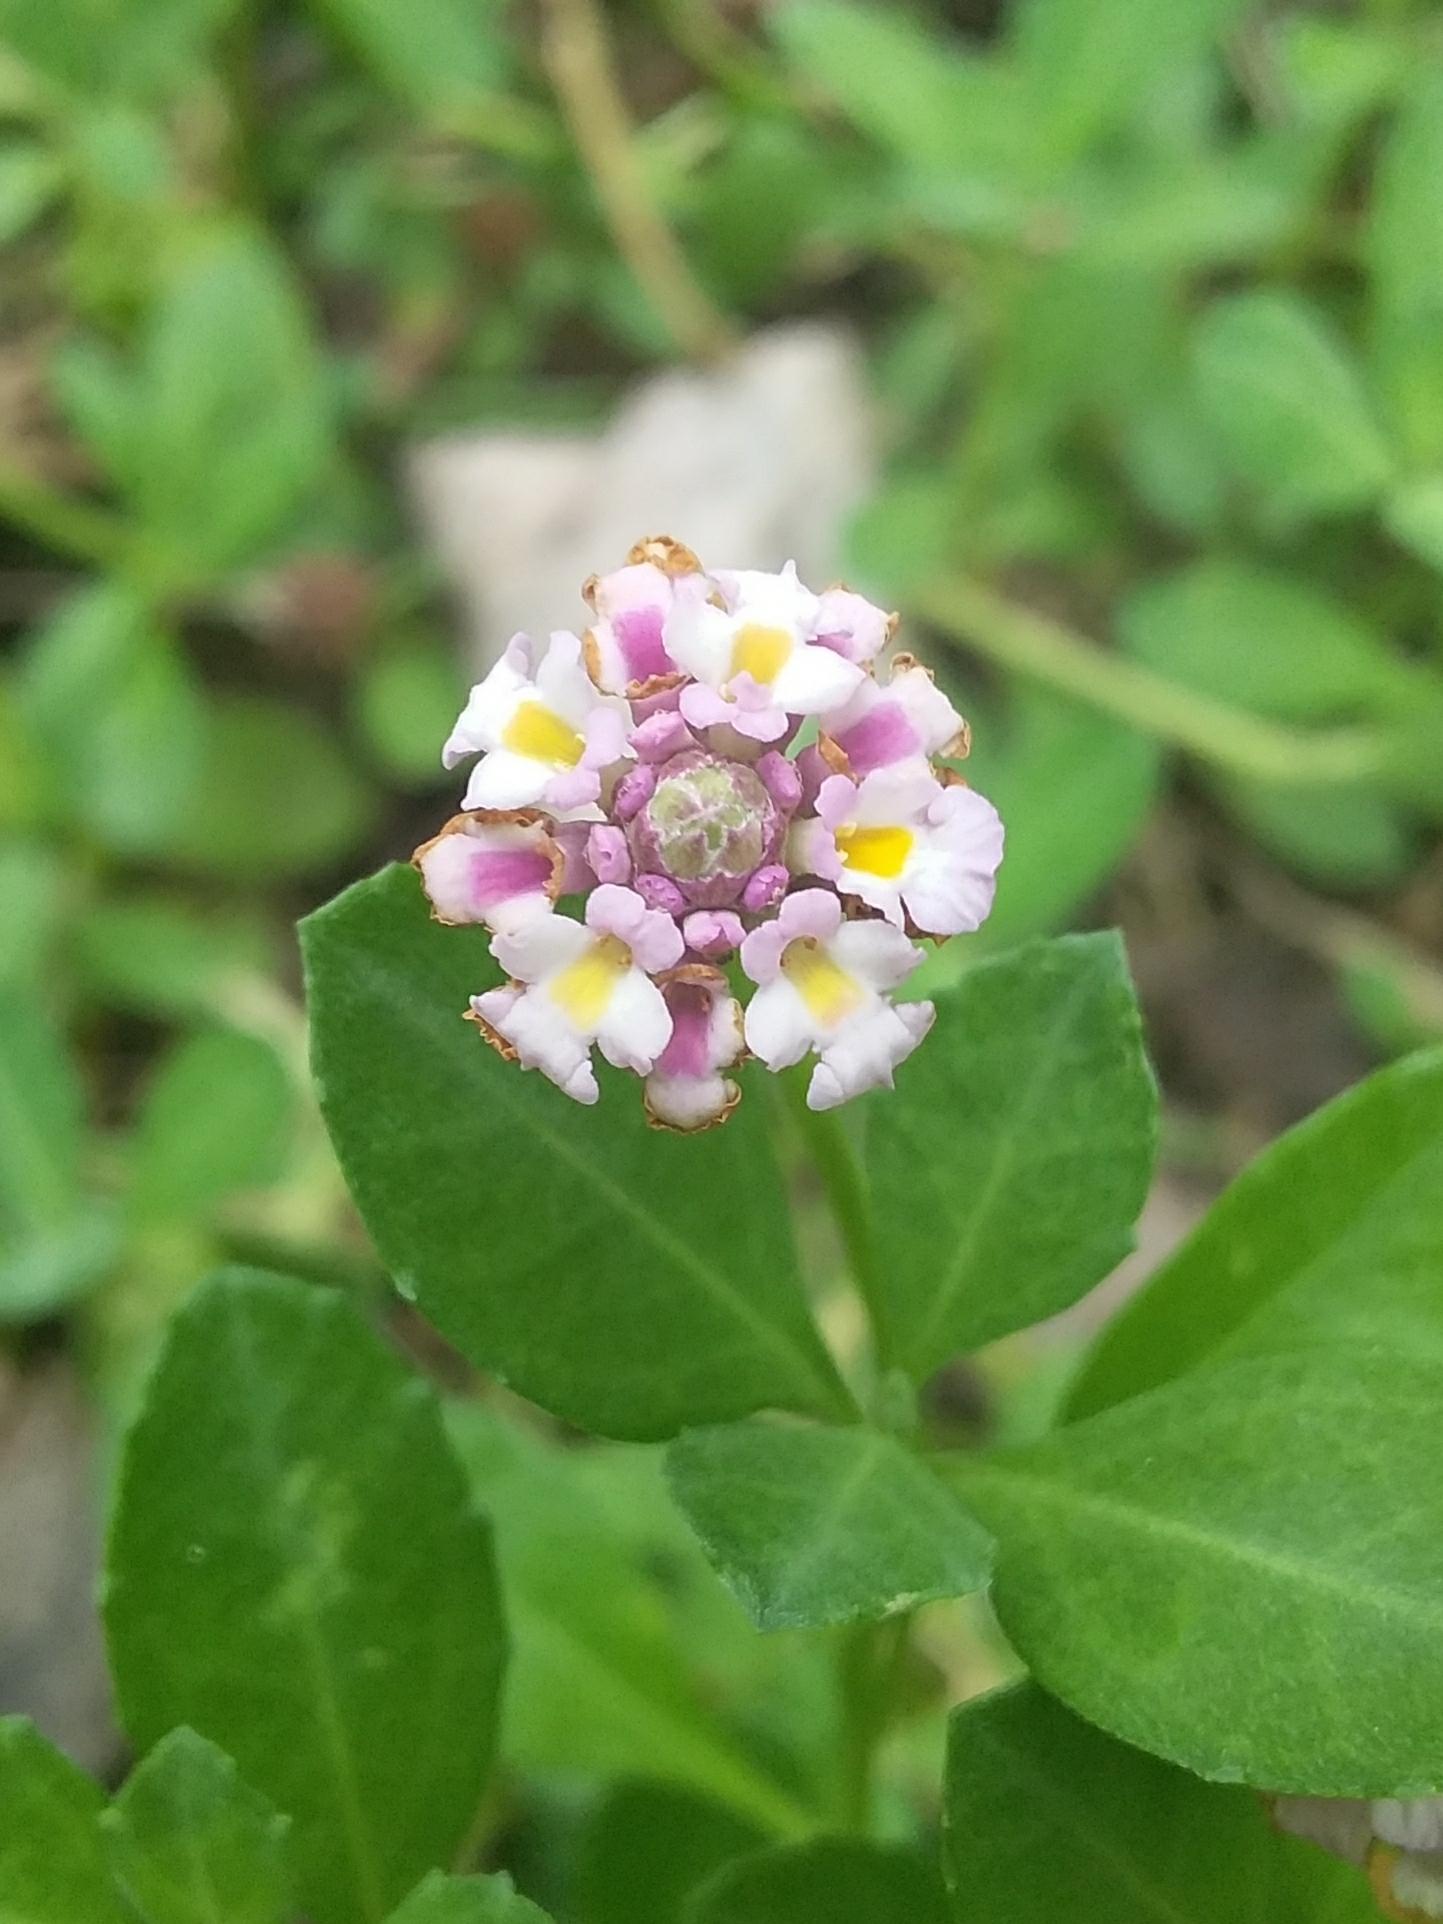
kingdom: Plantae
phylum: Tracheophyta
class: Magnoliopsida
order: Lamiales
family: Verbenaceae
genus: Phyla
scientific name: Phyla nodiflora
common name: Frogfruit
